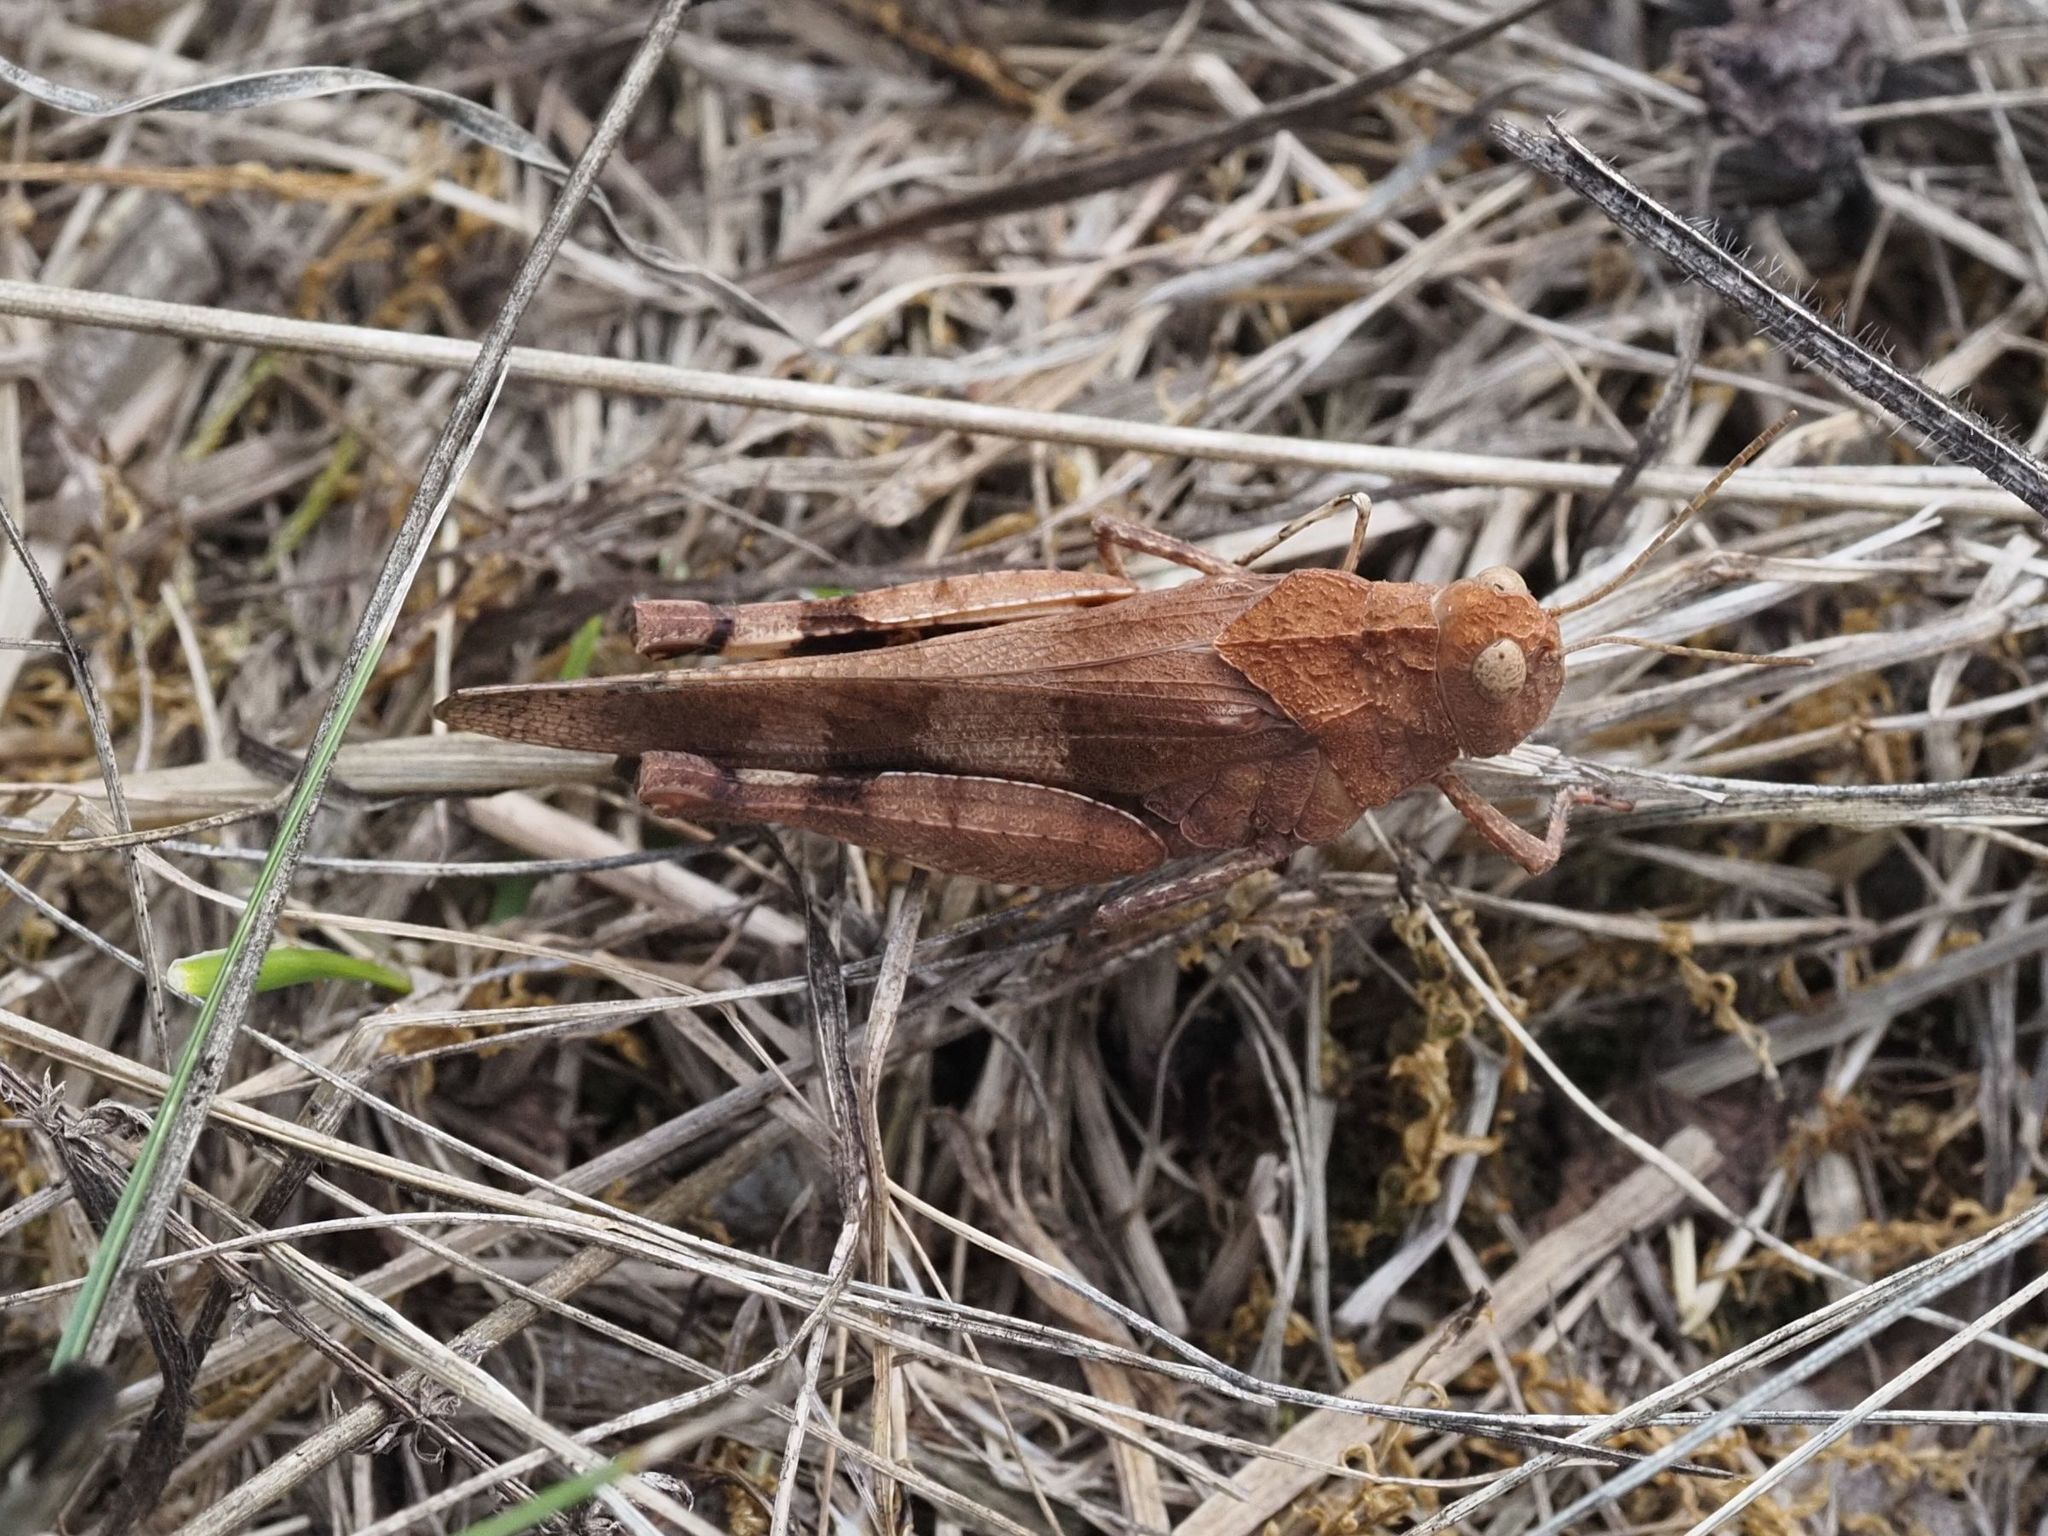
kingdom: Animalia
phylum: Arthropoda
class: Insecta
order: Orthoptera
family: Acrididae
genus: Oedipoda
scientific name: Oedipoda caerulescens
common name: Blue-winged grasshopper
